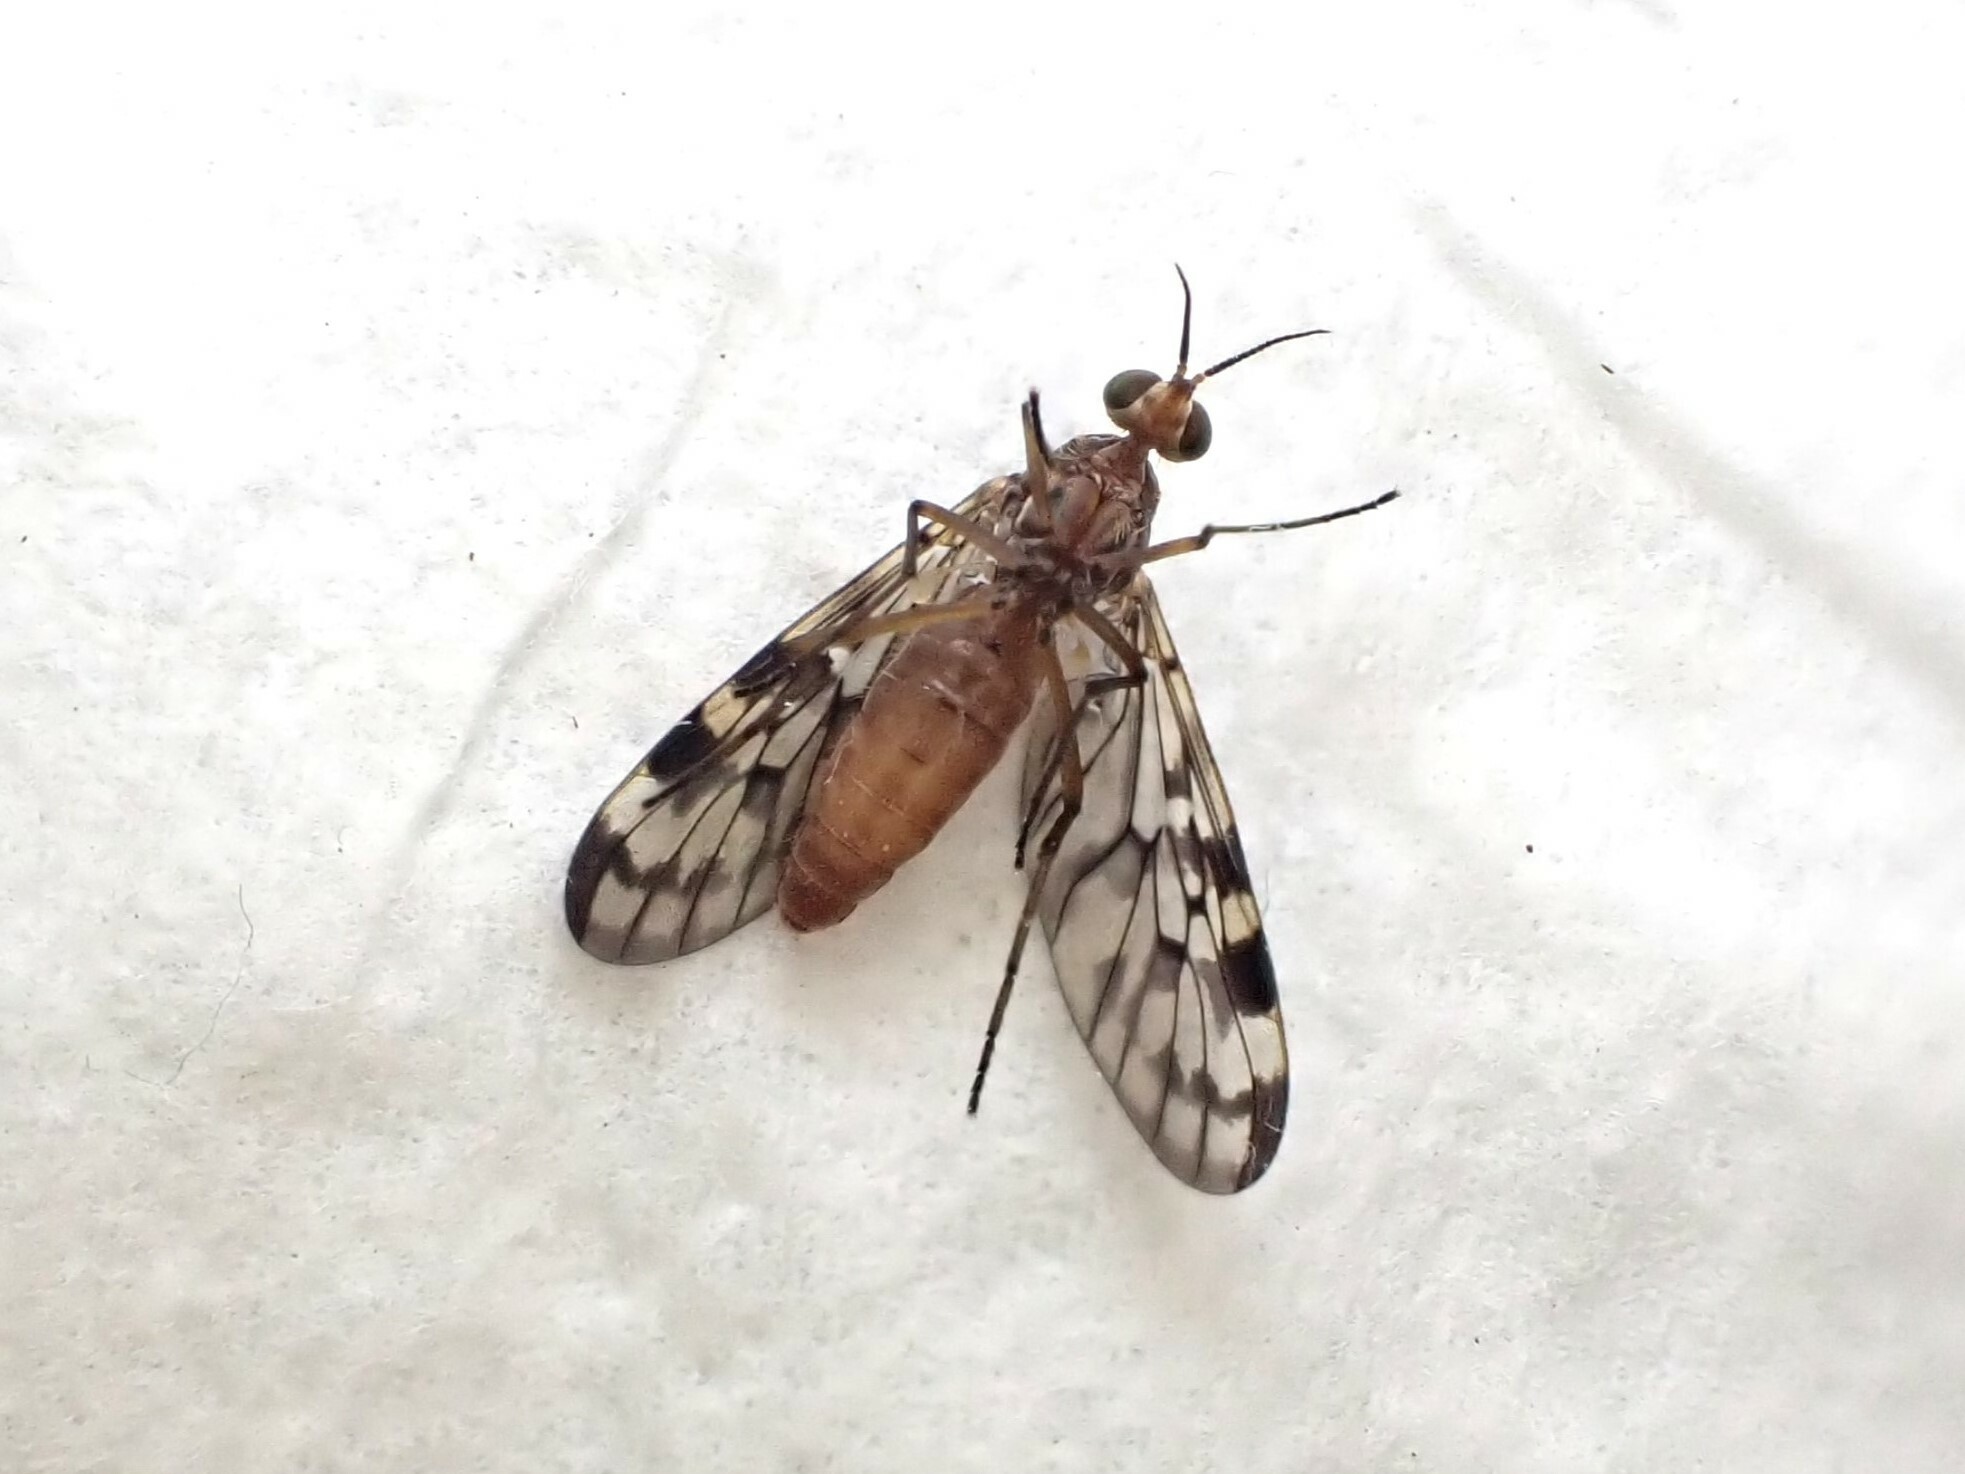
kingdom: Animalia
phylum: Arthropoda
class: Insecta
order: Diptera
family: Anisopodidae
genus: Sylvicola
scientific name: Sylvicola dubius
